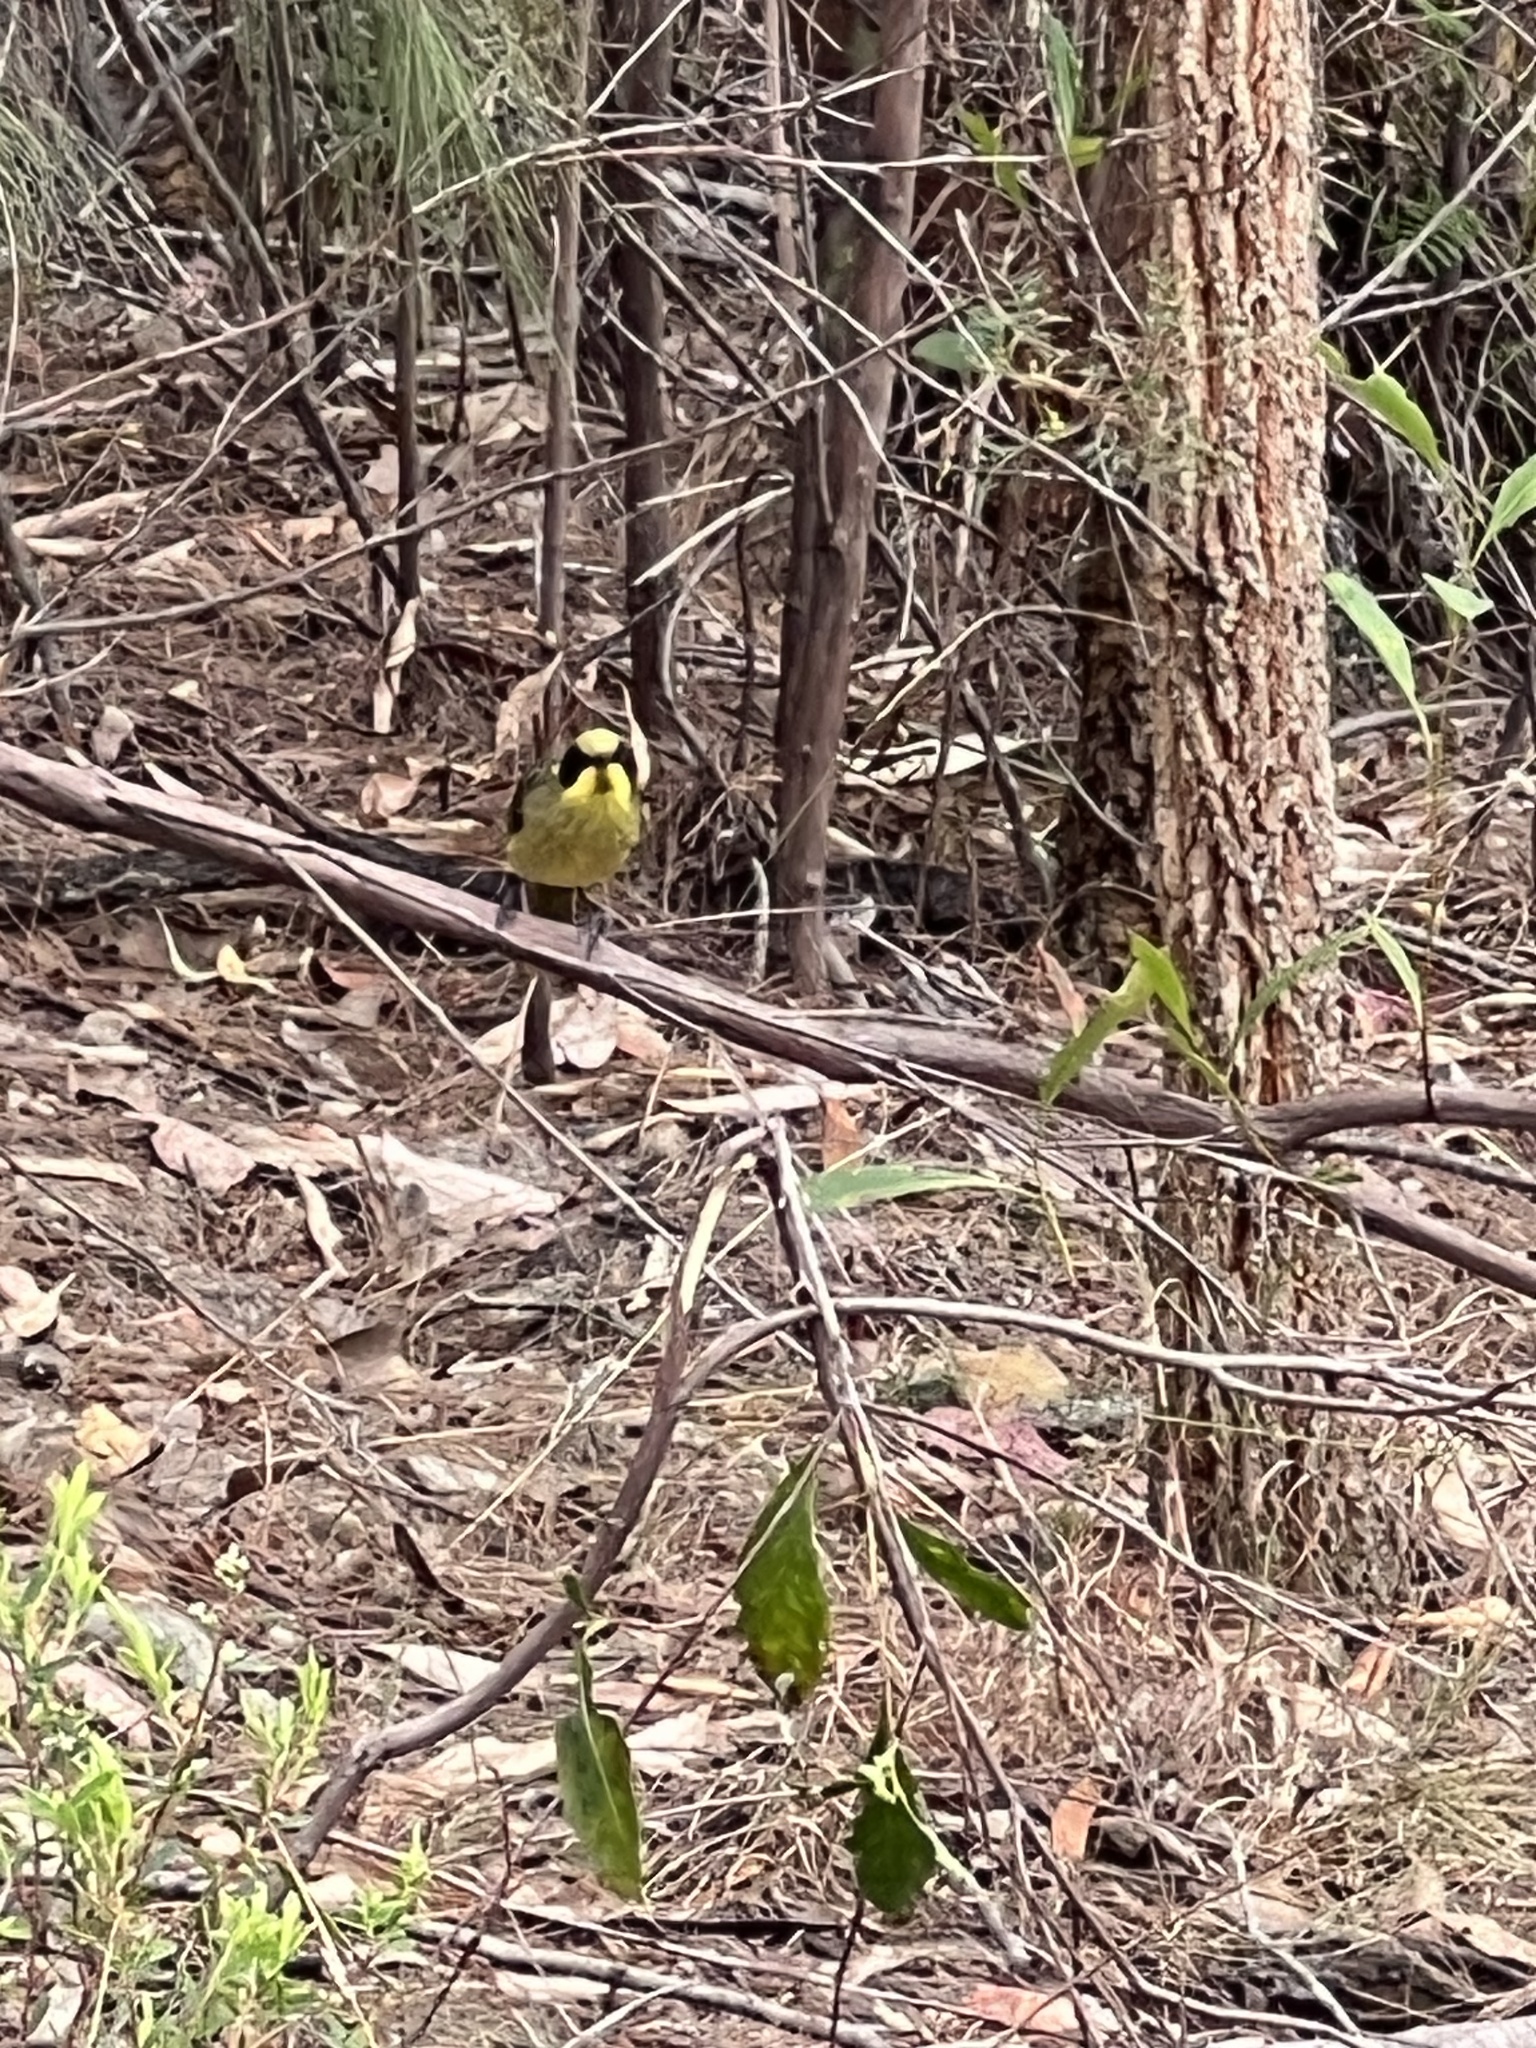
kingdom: Animalia
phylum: Chordata
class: Aves
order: Passeriformes
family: Meliphagidae
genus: Lichenostomus
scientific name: Lichenostomus melanops
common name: Yellow-tufted honeyeater
